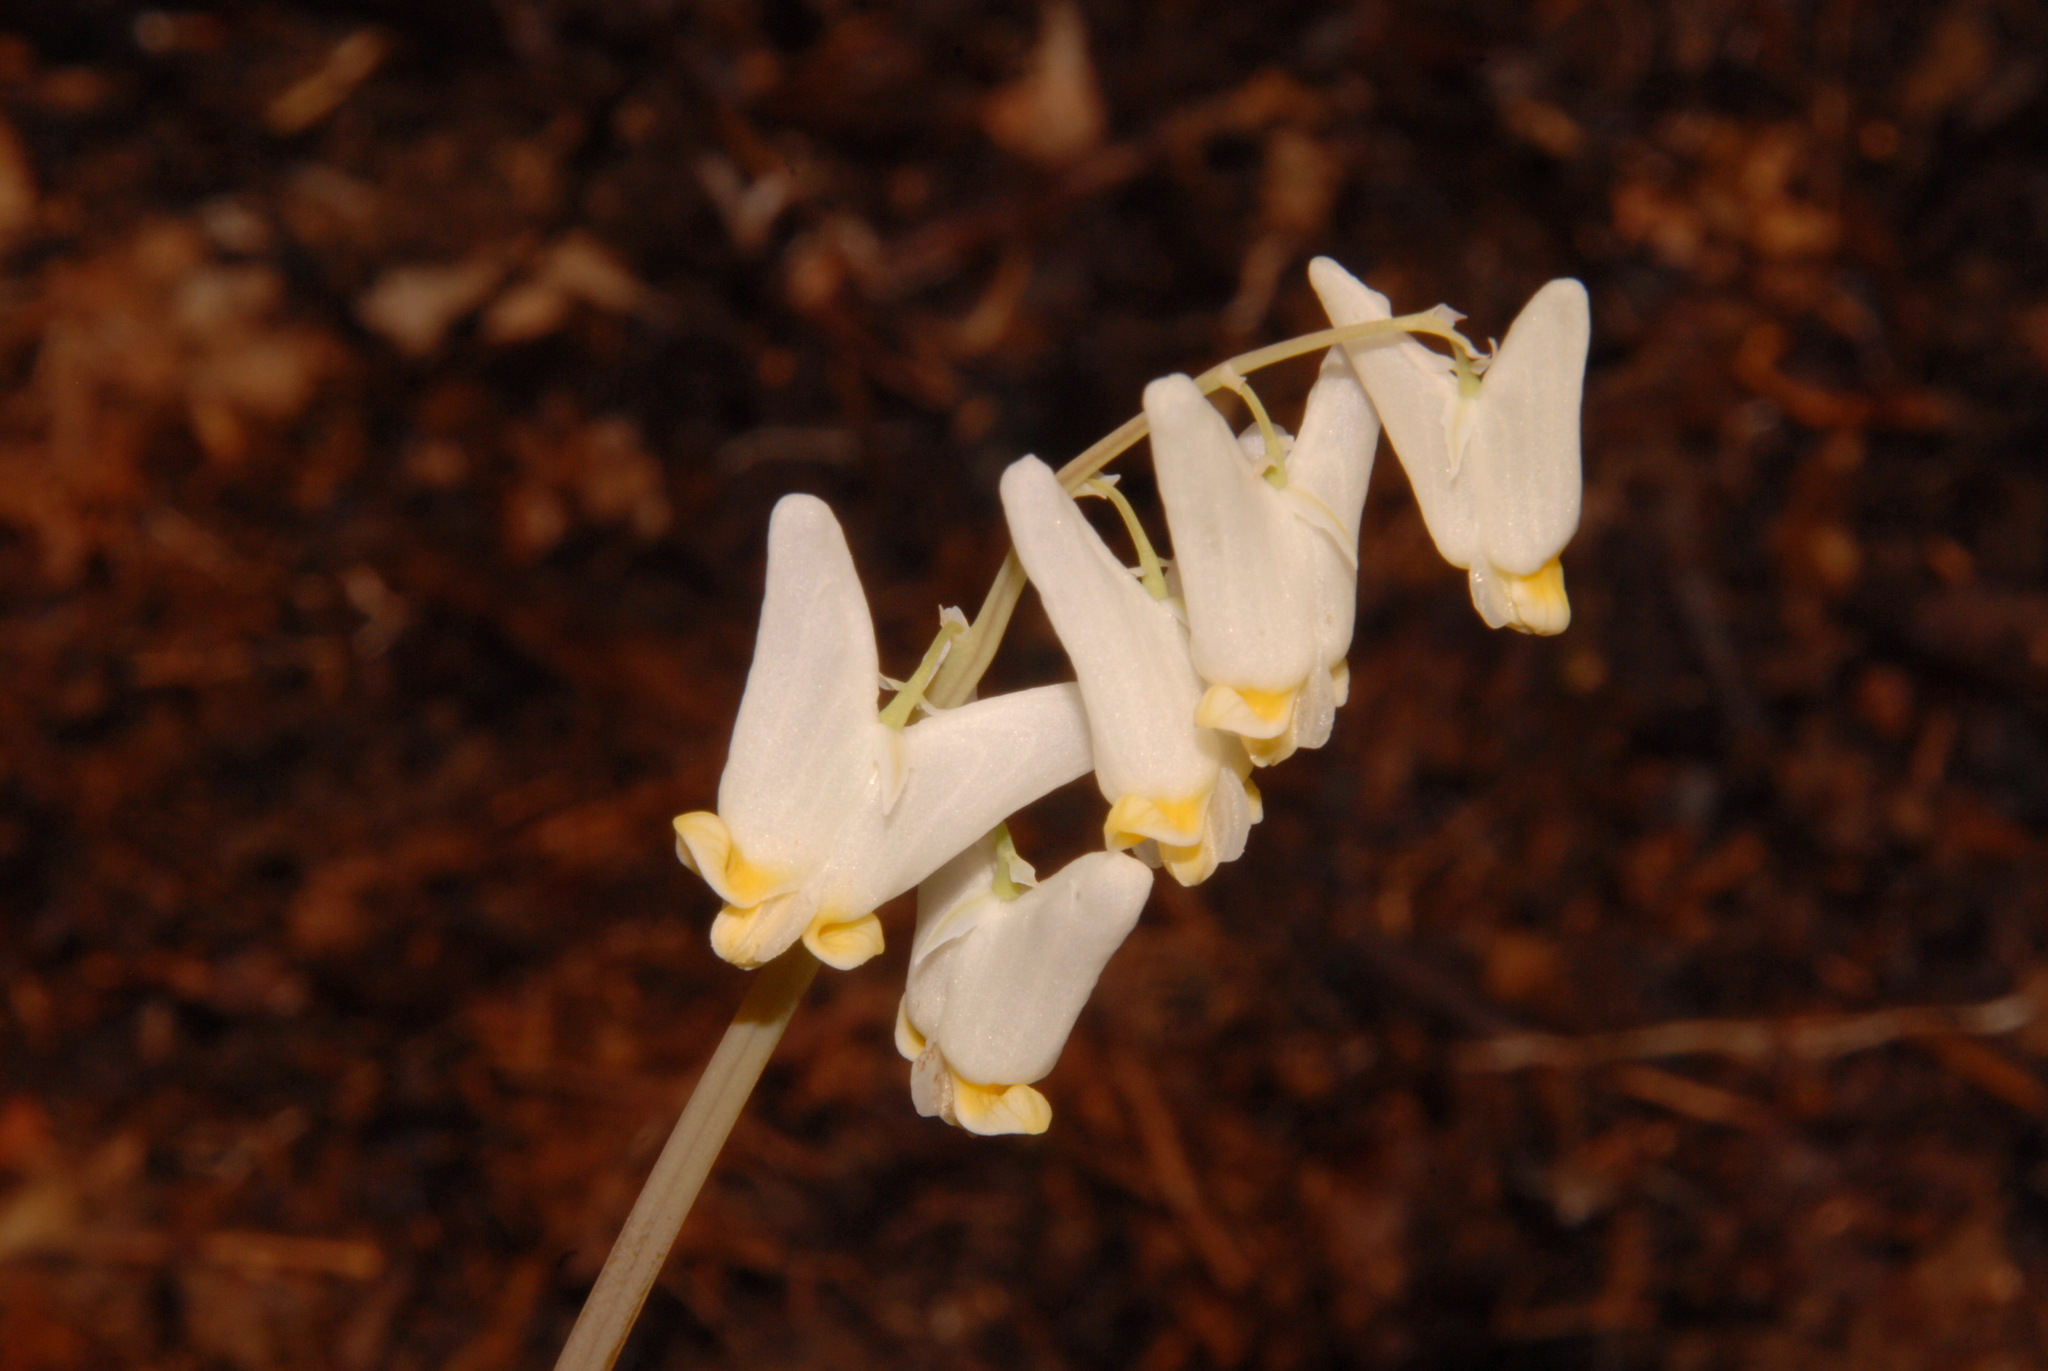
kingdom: Plantae
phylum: Tracheophyta
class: Magnoliopsida
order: Ranunculales
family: Papaveraceae
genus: Dicentra
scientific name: Dicentra cucullaria
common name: Dutchman's breeches
